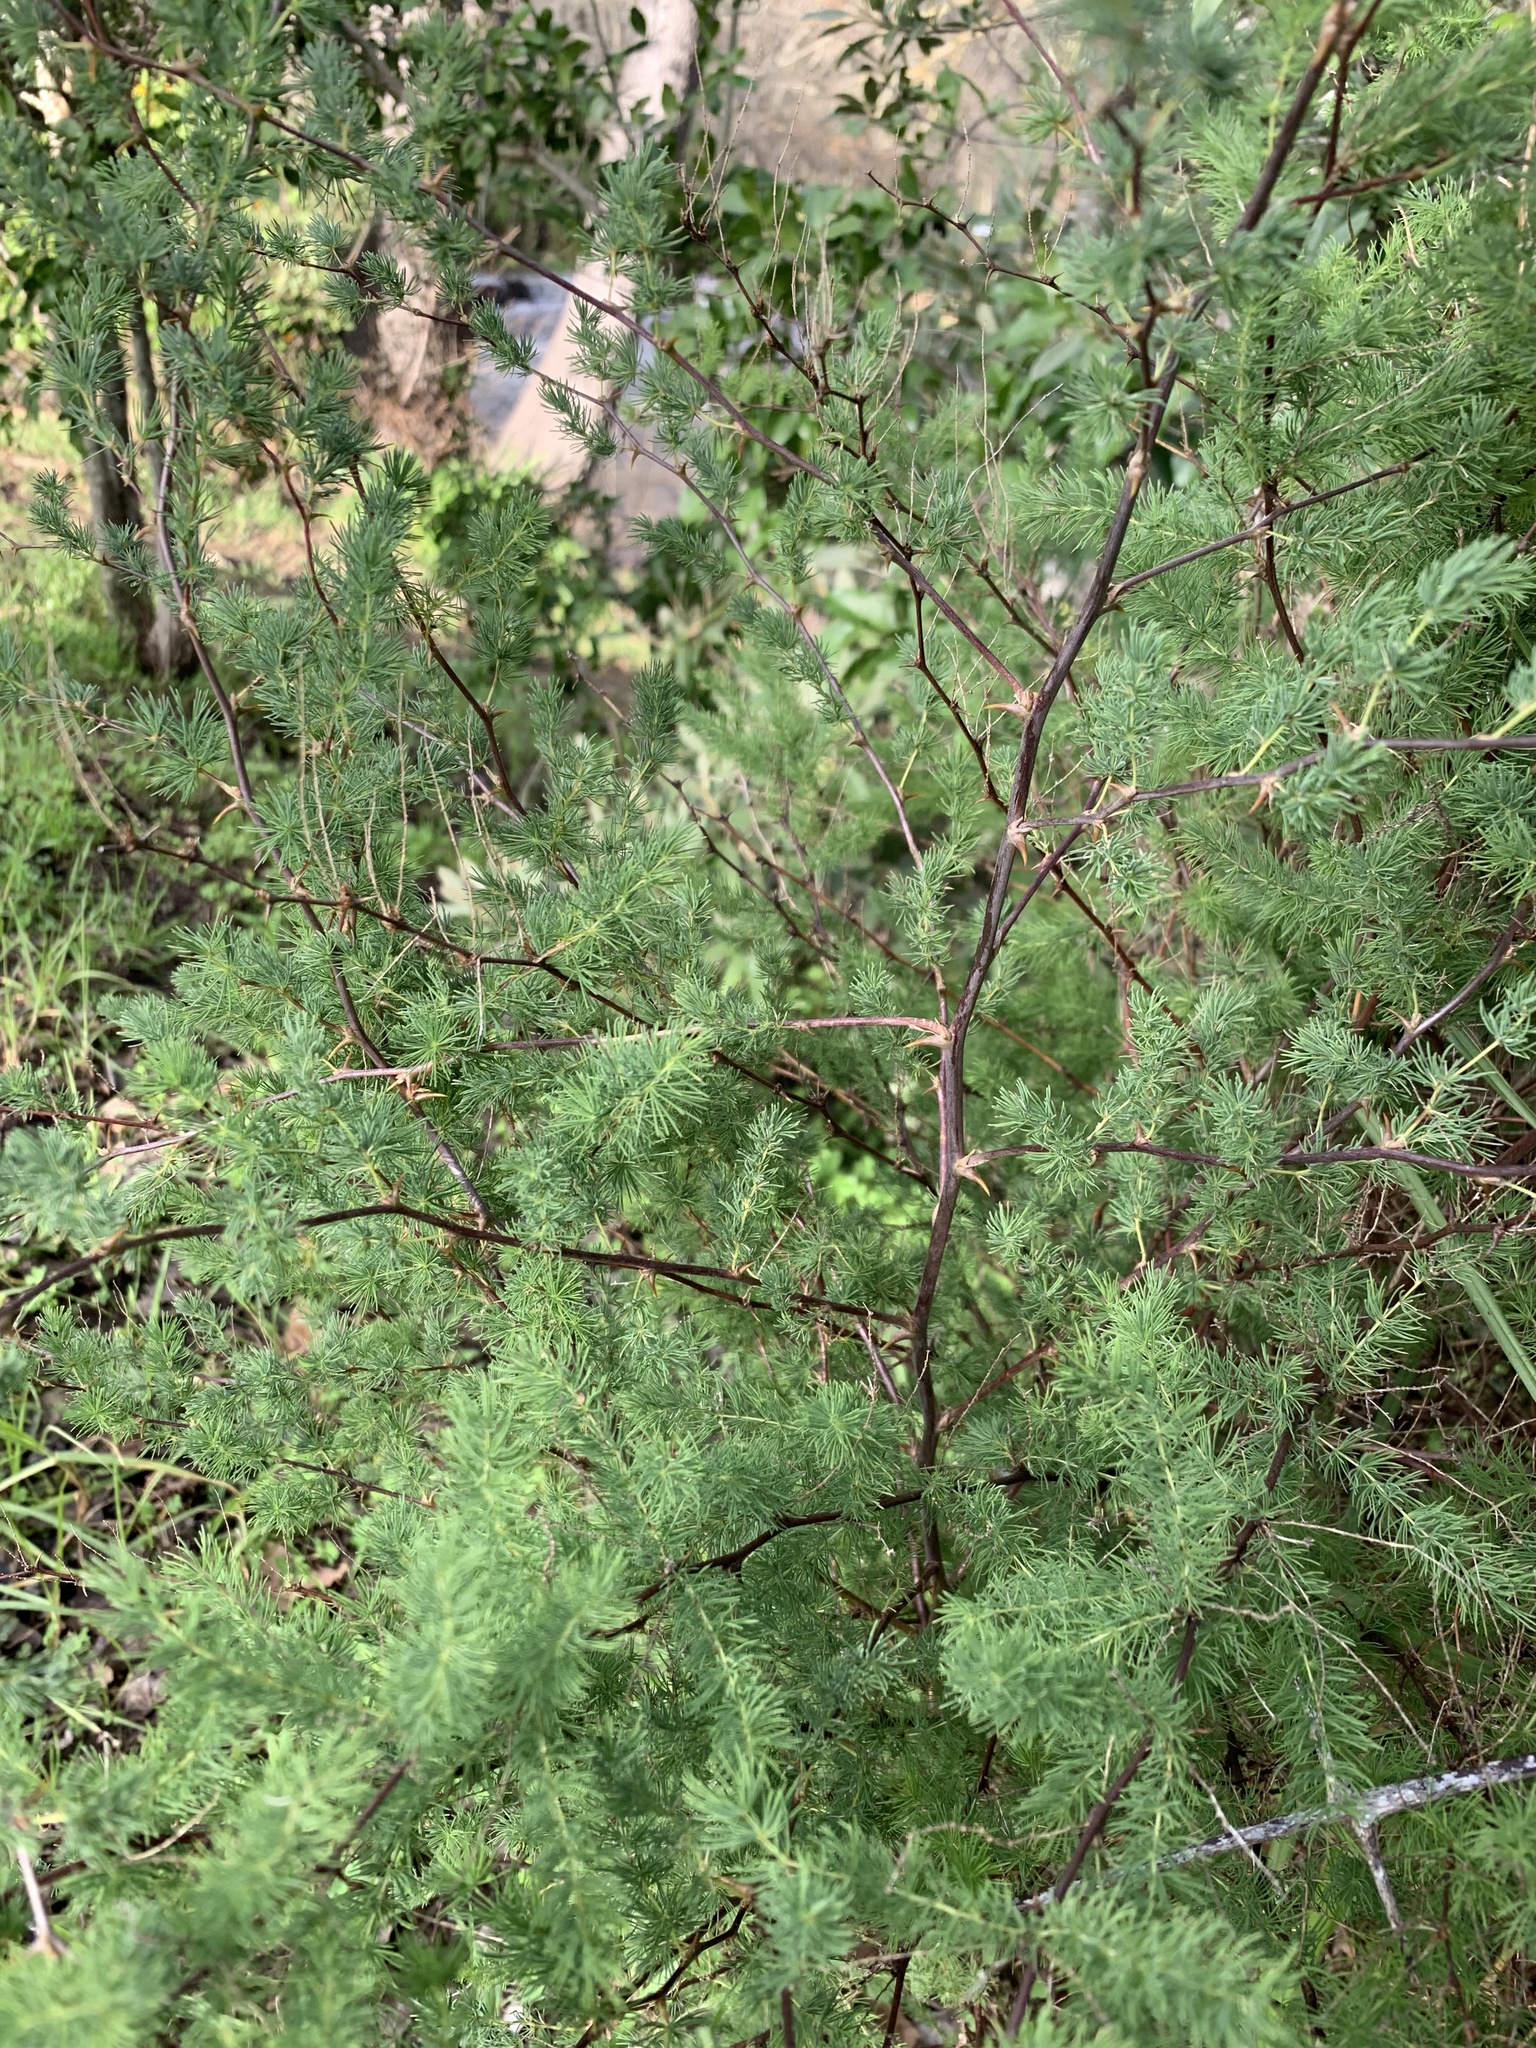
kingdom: Plantae
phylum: Tracheophyta
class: Liliopsida
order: Asparagales
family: Asparagaceae
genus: Asparagus
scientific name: Asparagus rubicundus
